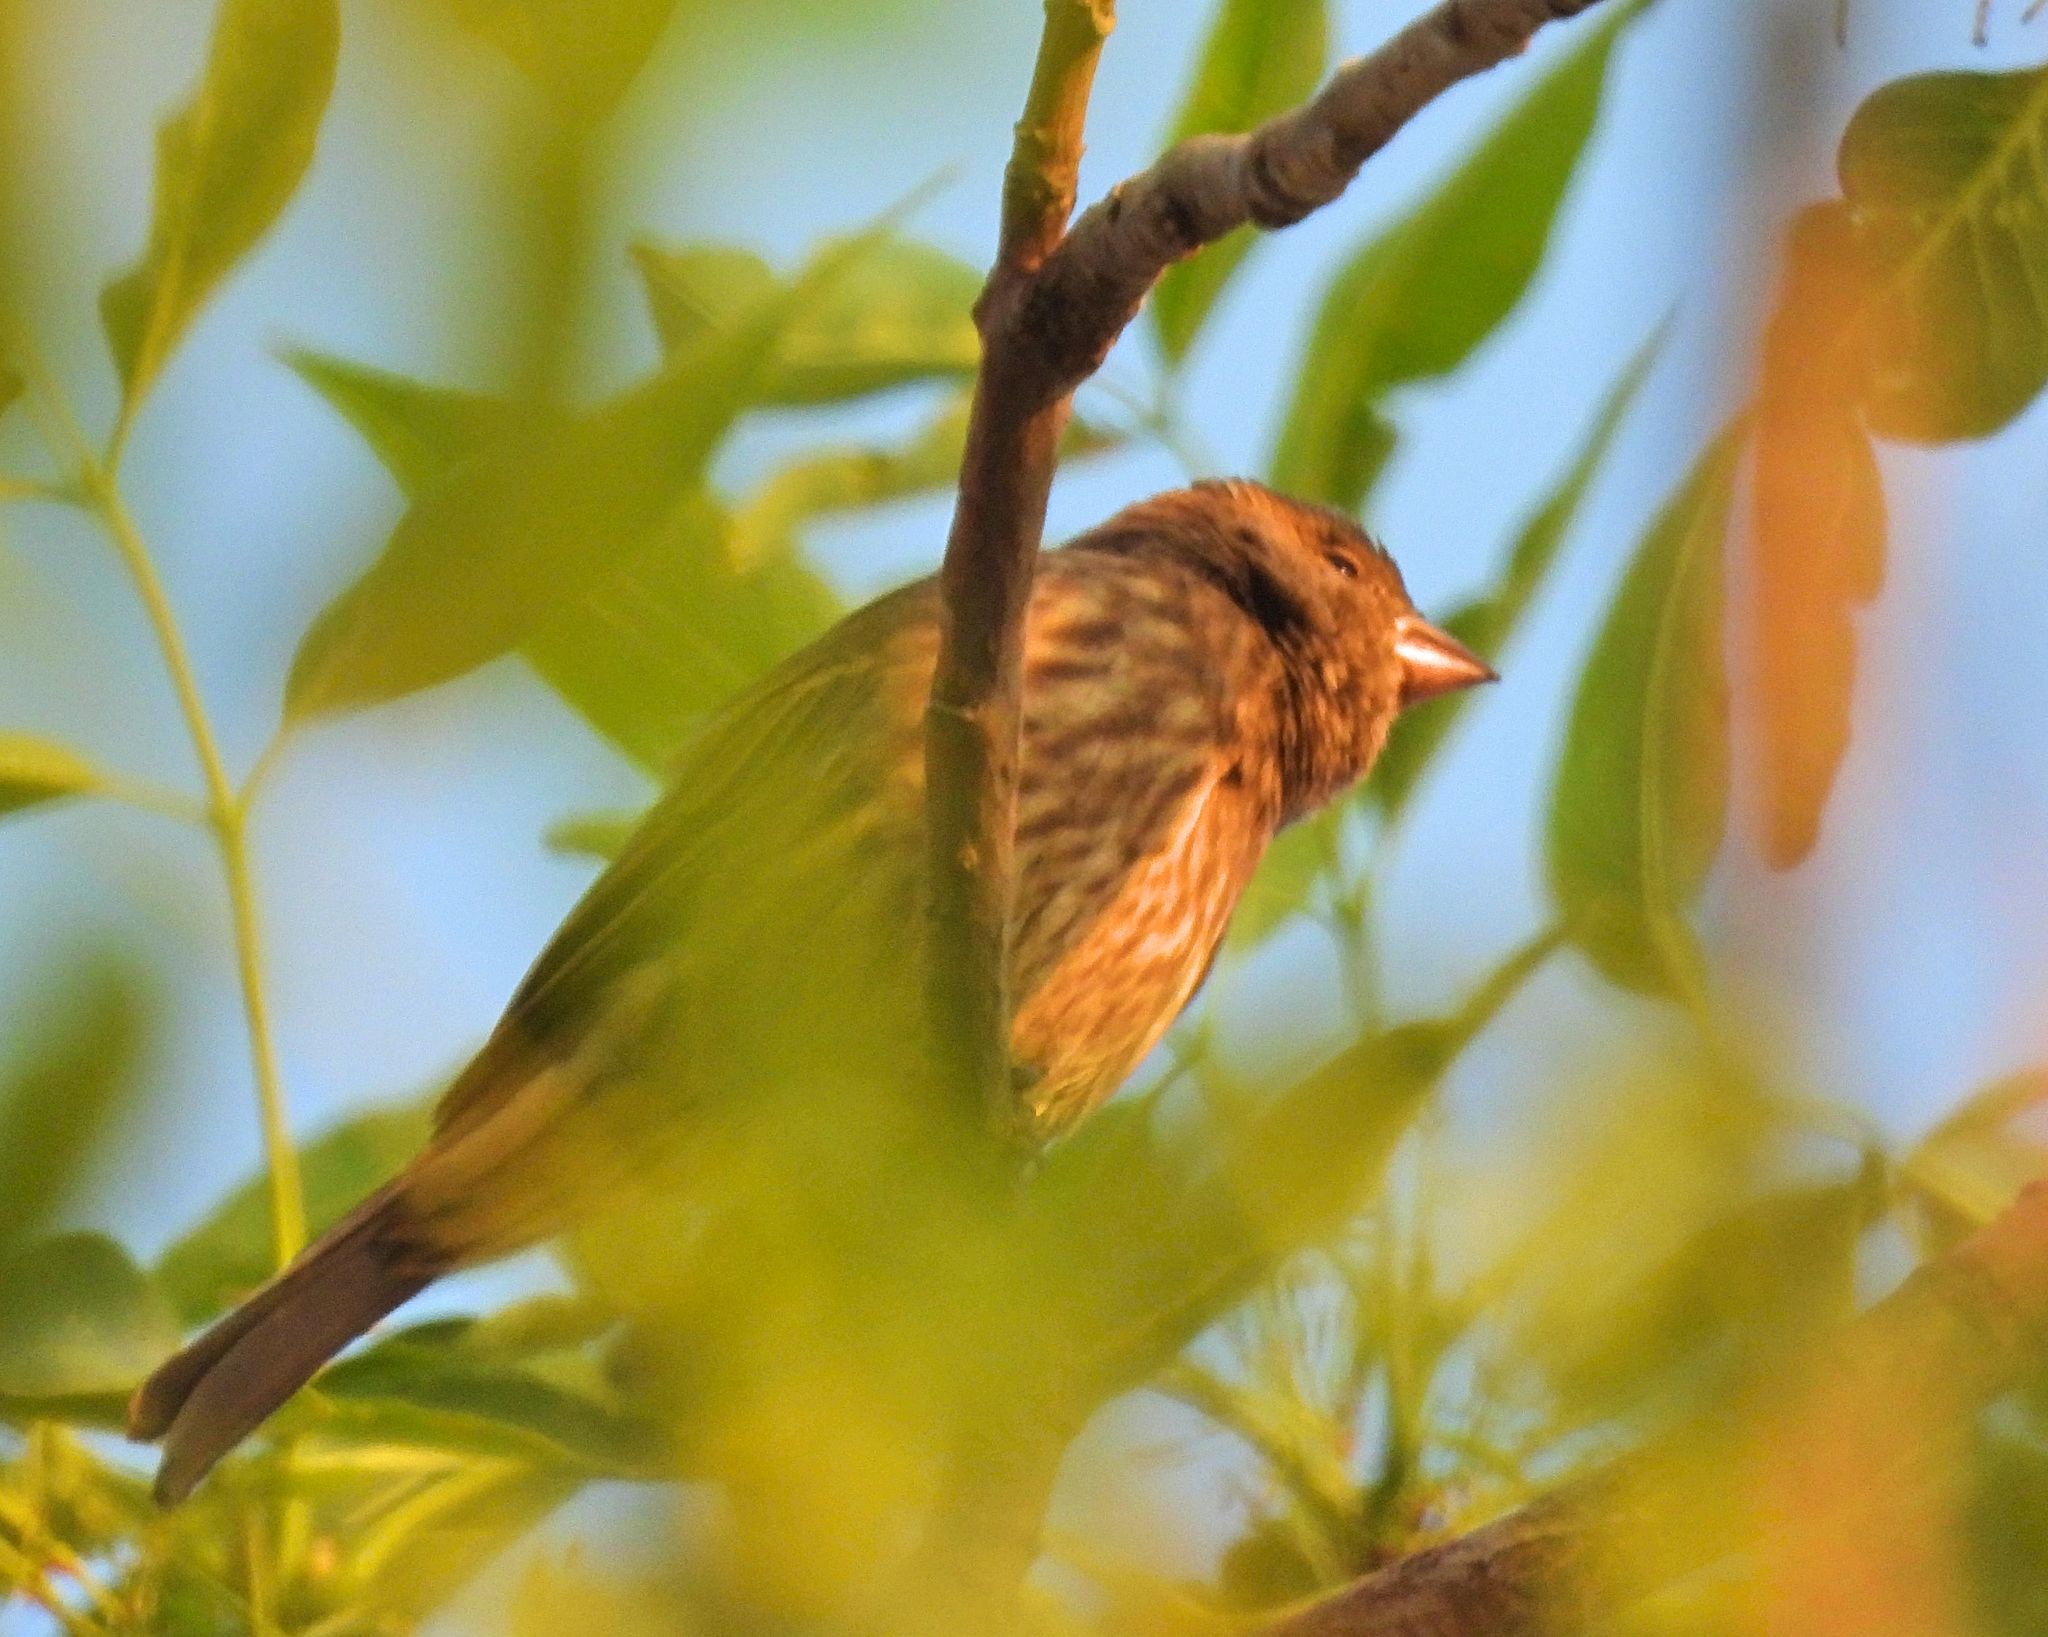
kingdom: Animalia
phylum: Chordata
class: Aves
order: Passeriformes
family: Fringillidae
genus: Haemorhous
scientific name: Haemorhous mexicanus
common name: House finch
